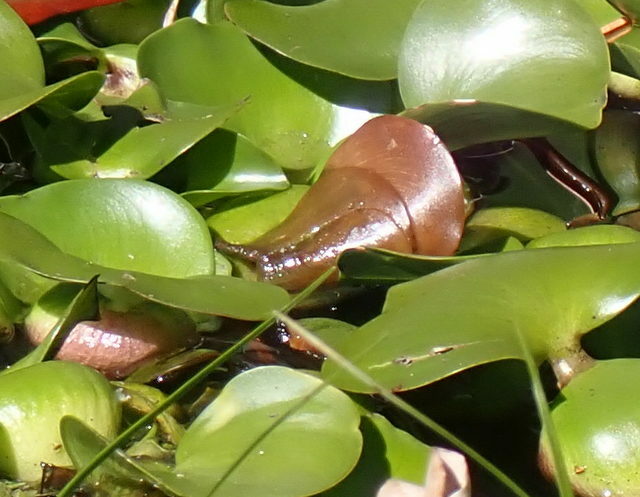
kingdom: Plantae
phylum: Tracheophyta
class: Liliopsida
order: Commelinales
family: Pontederiaceae
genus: Pontederia
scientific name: Pontederia crassipes
